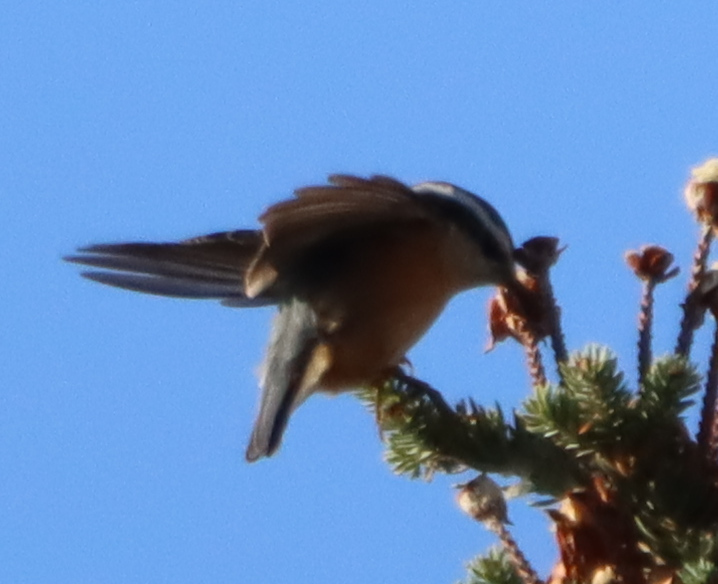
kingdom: Animalia
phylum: Chordata
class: Aves
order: Passeriformes
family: Sittidae
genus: Sitta
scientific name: Sitta canadensis
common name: Red-breasted nuthatch
